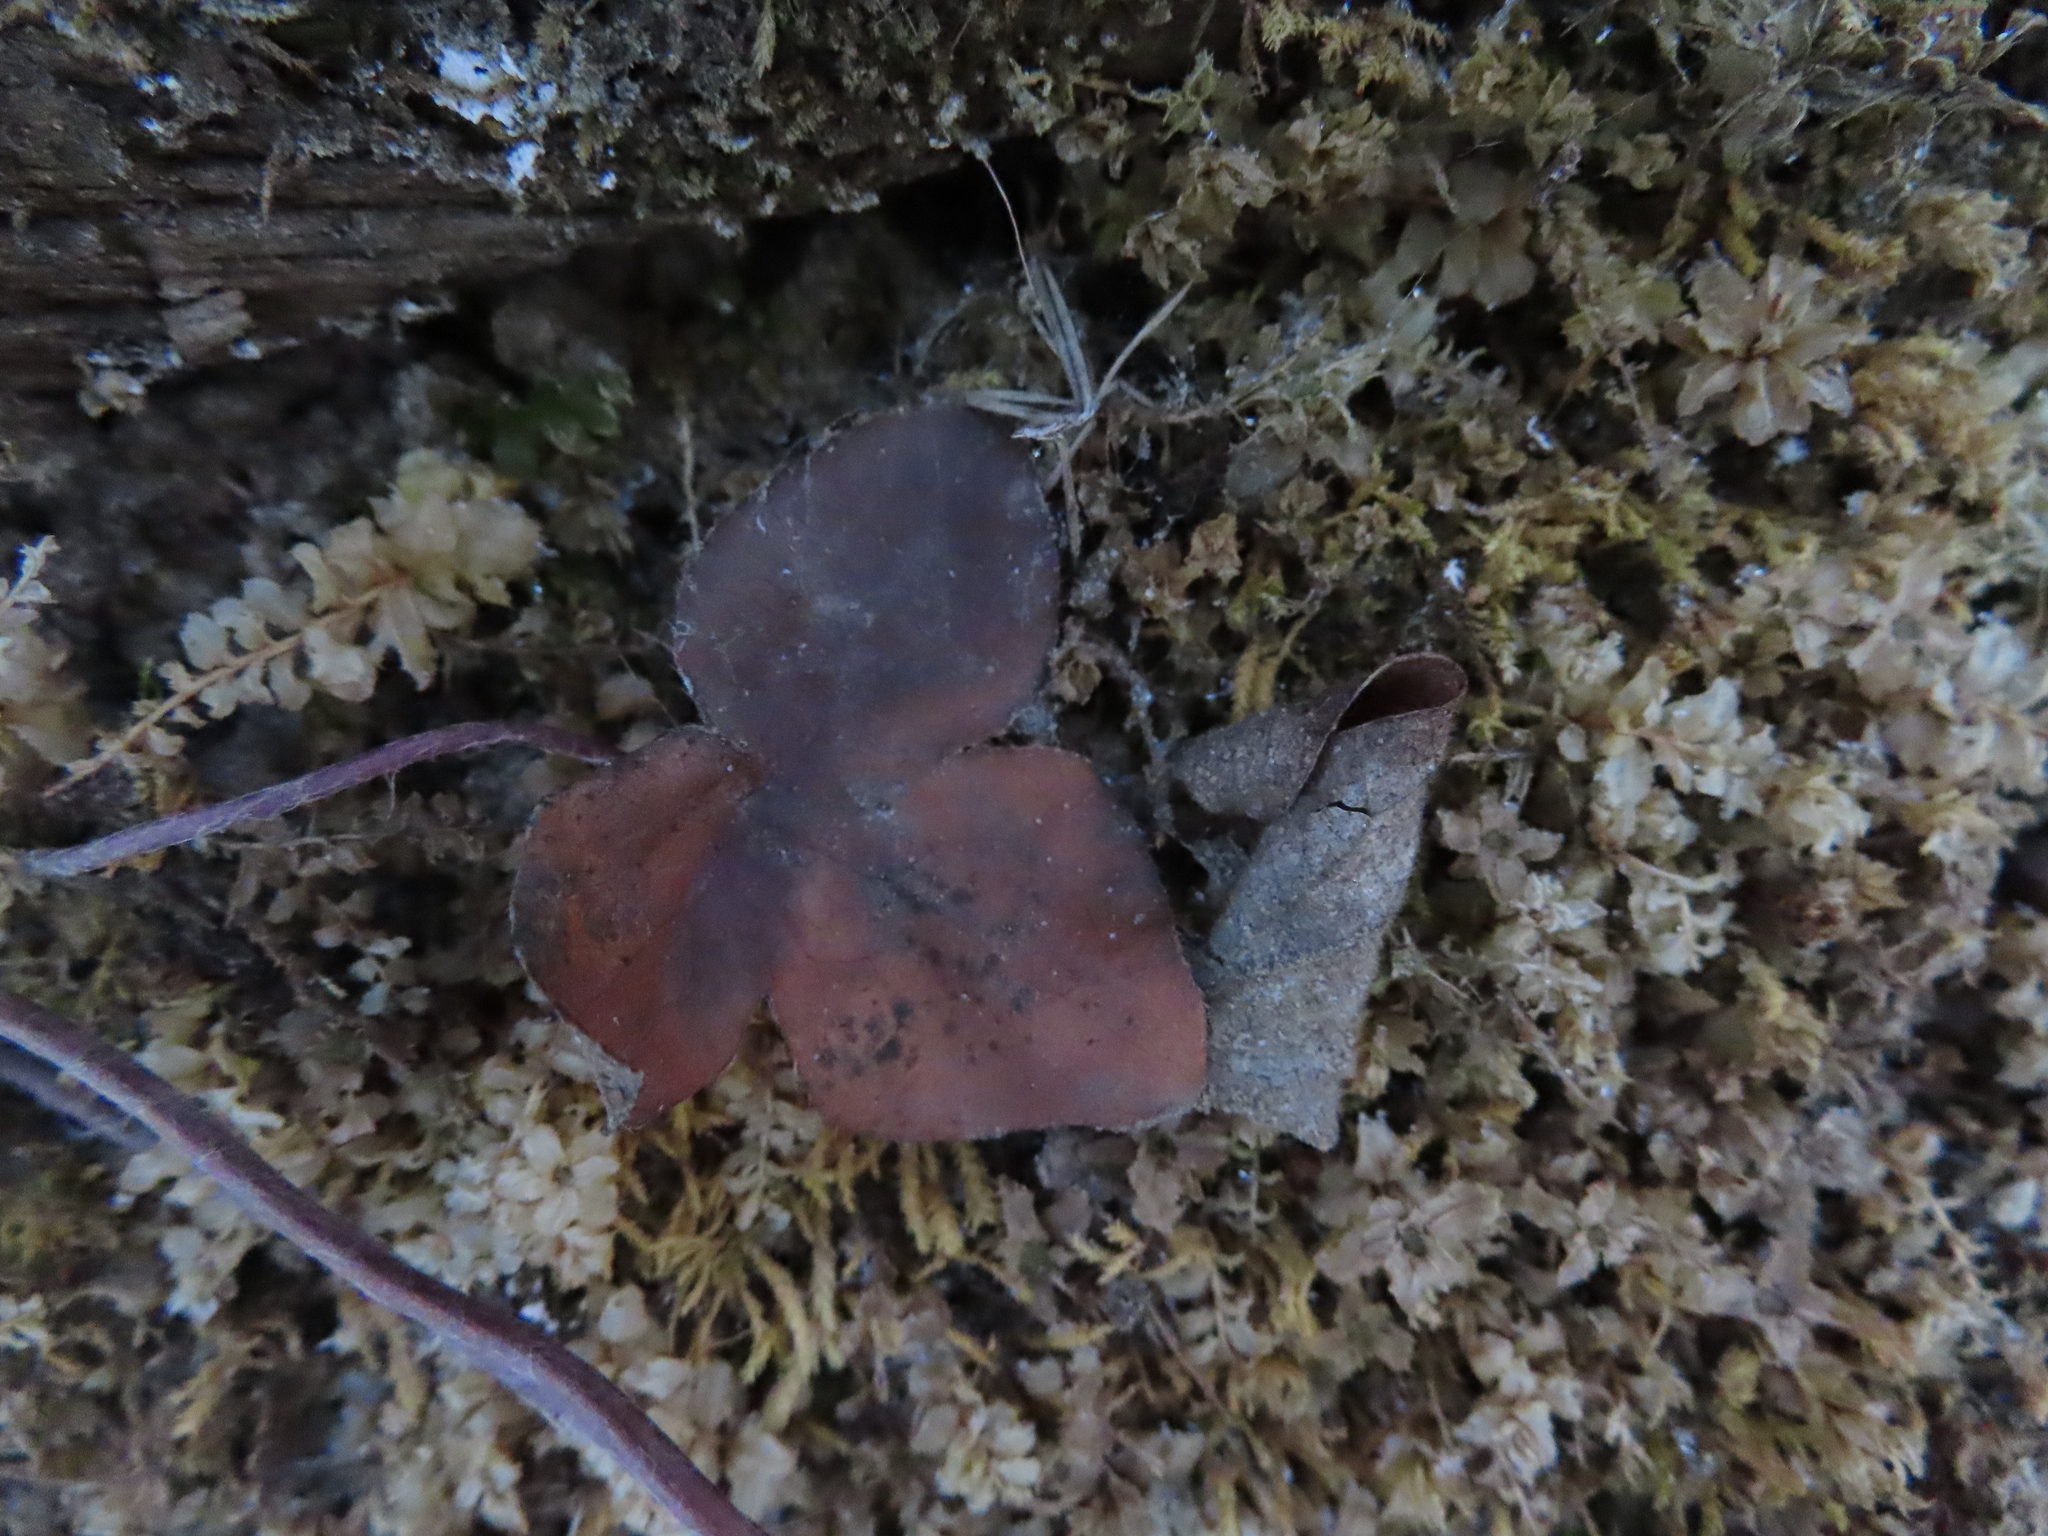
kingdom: Plantae
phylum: Tracheophyta
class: Magnoliopsida
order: Ranunculales
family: Ranunculaceae
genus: Hepatica
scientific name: Hepatica americana
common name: American hepatica
